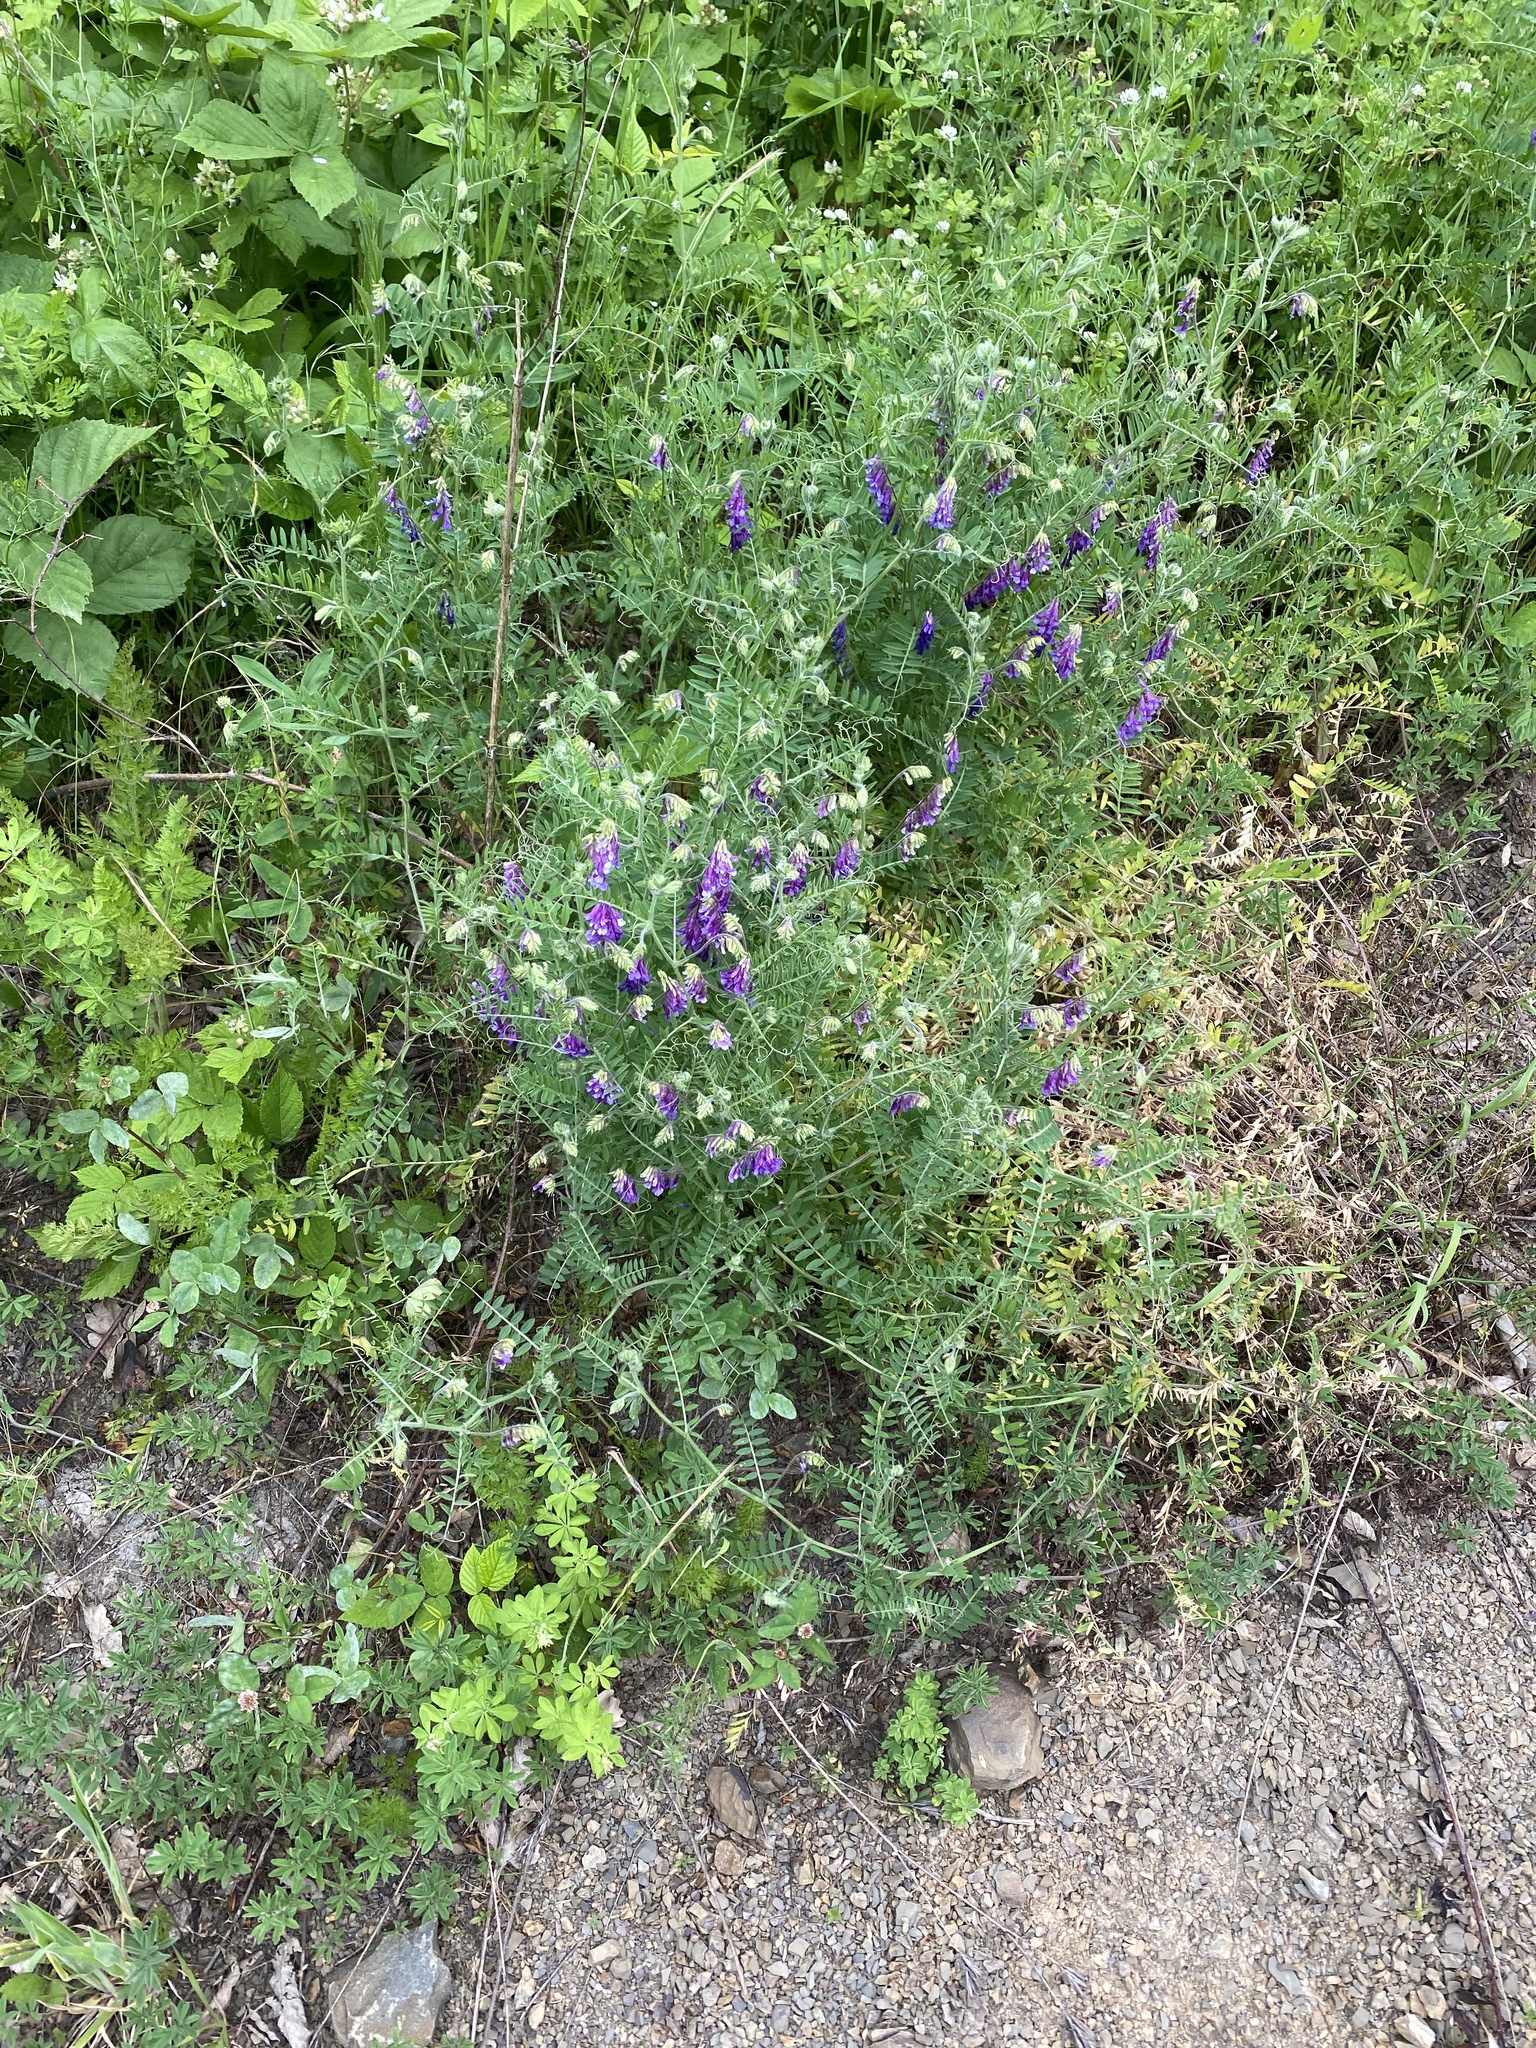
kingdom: Plantae
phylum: Tracheophyta
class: Magnoliopsida
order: Fabales
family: Fabaceae
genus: Vicia
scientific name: Vicia villosa
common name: Fodder vetch
